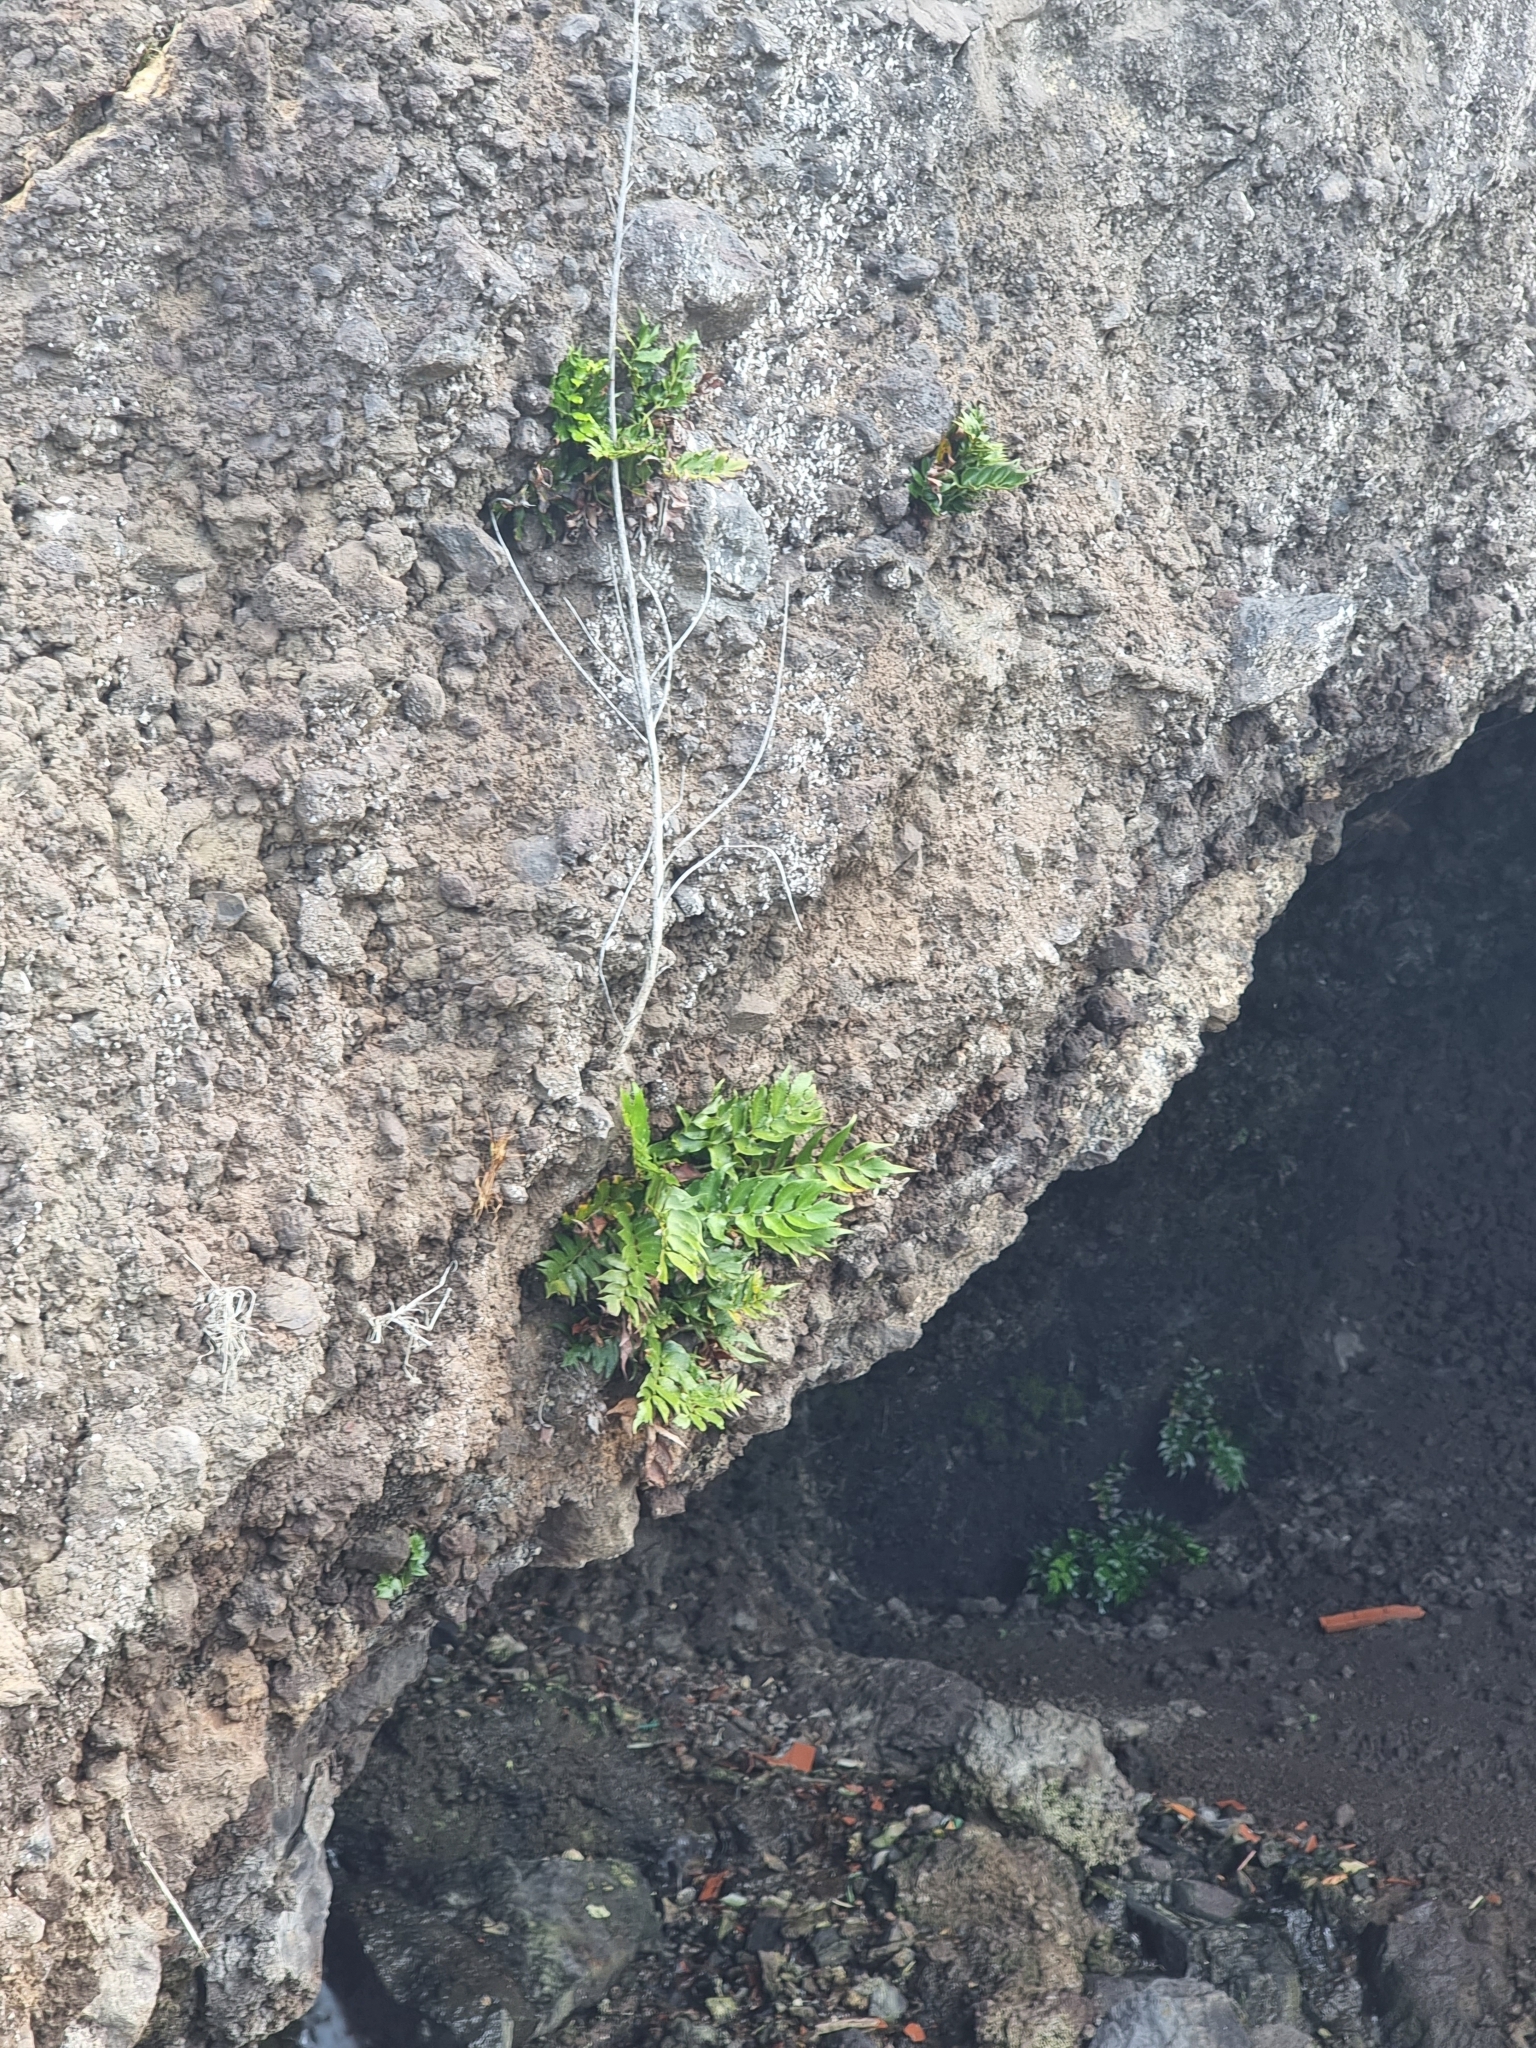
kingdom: Plantae
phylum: Tracheophyta
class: Polypodiopsida
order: Polypodiales
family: Dryopteridaceae
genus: Cyrtomium
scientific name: Cyrtomium falcatum
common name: House holly-fern
